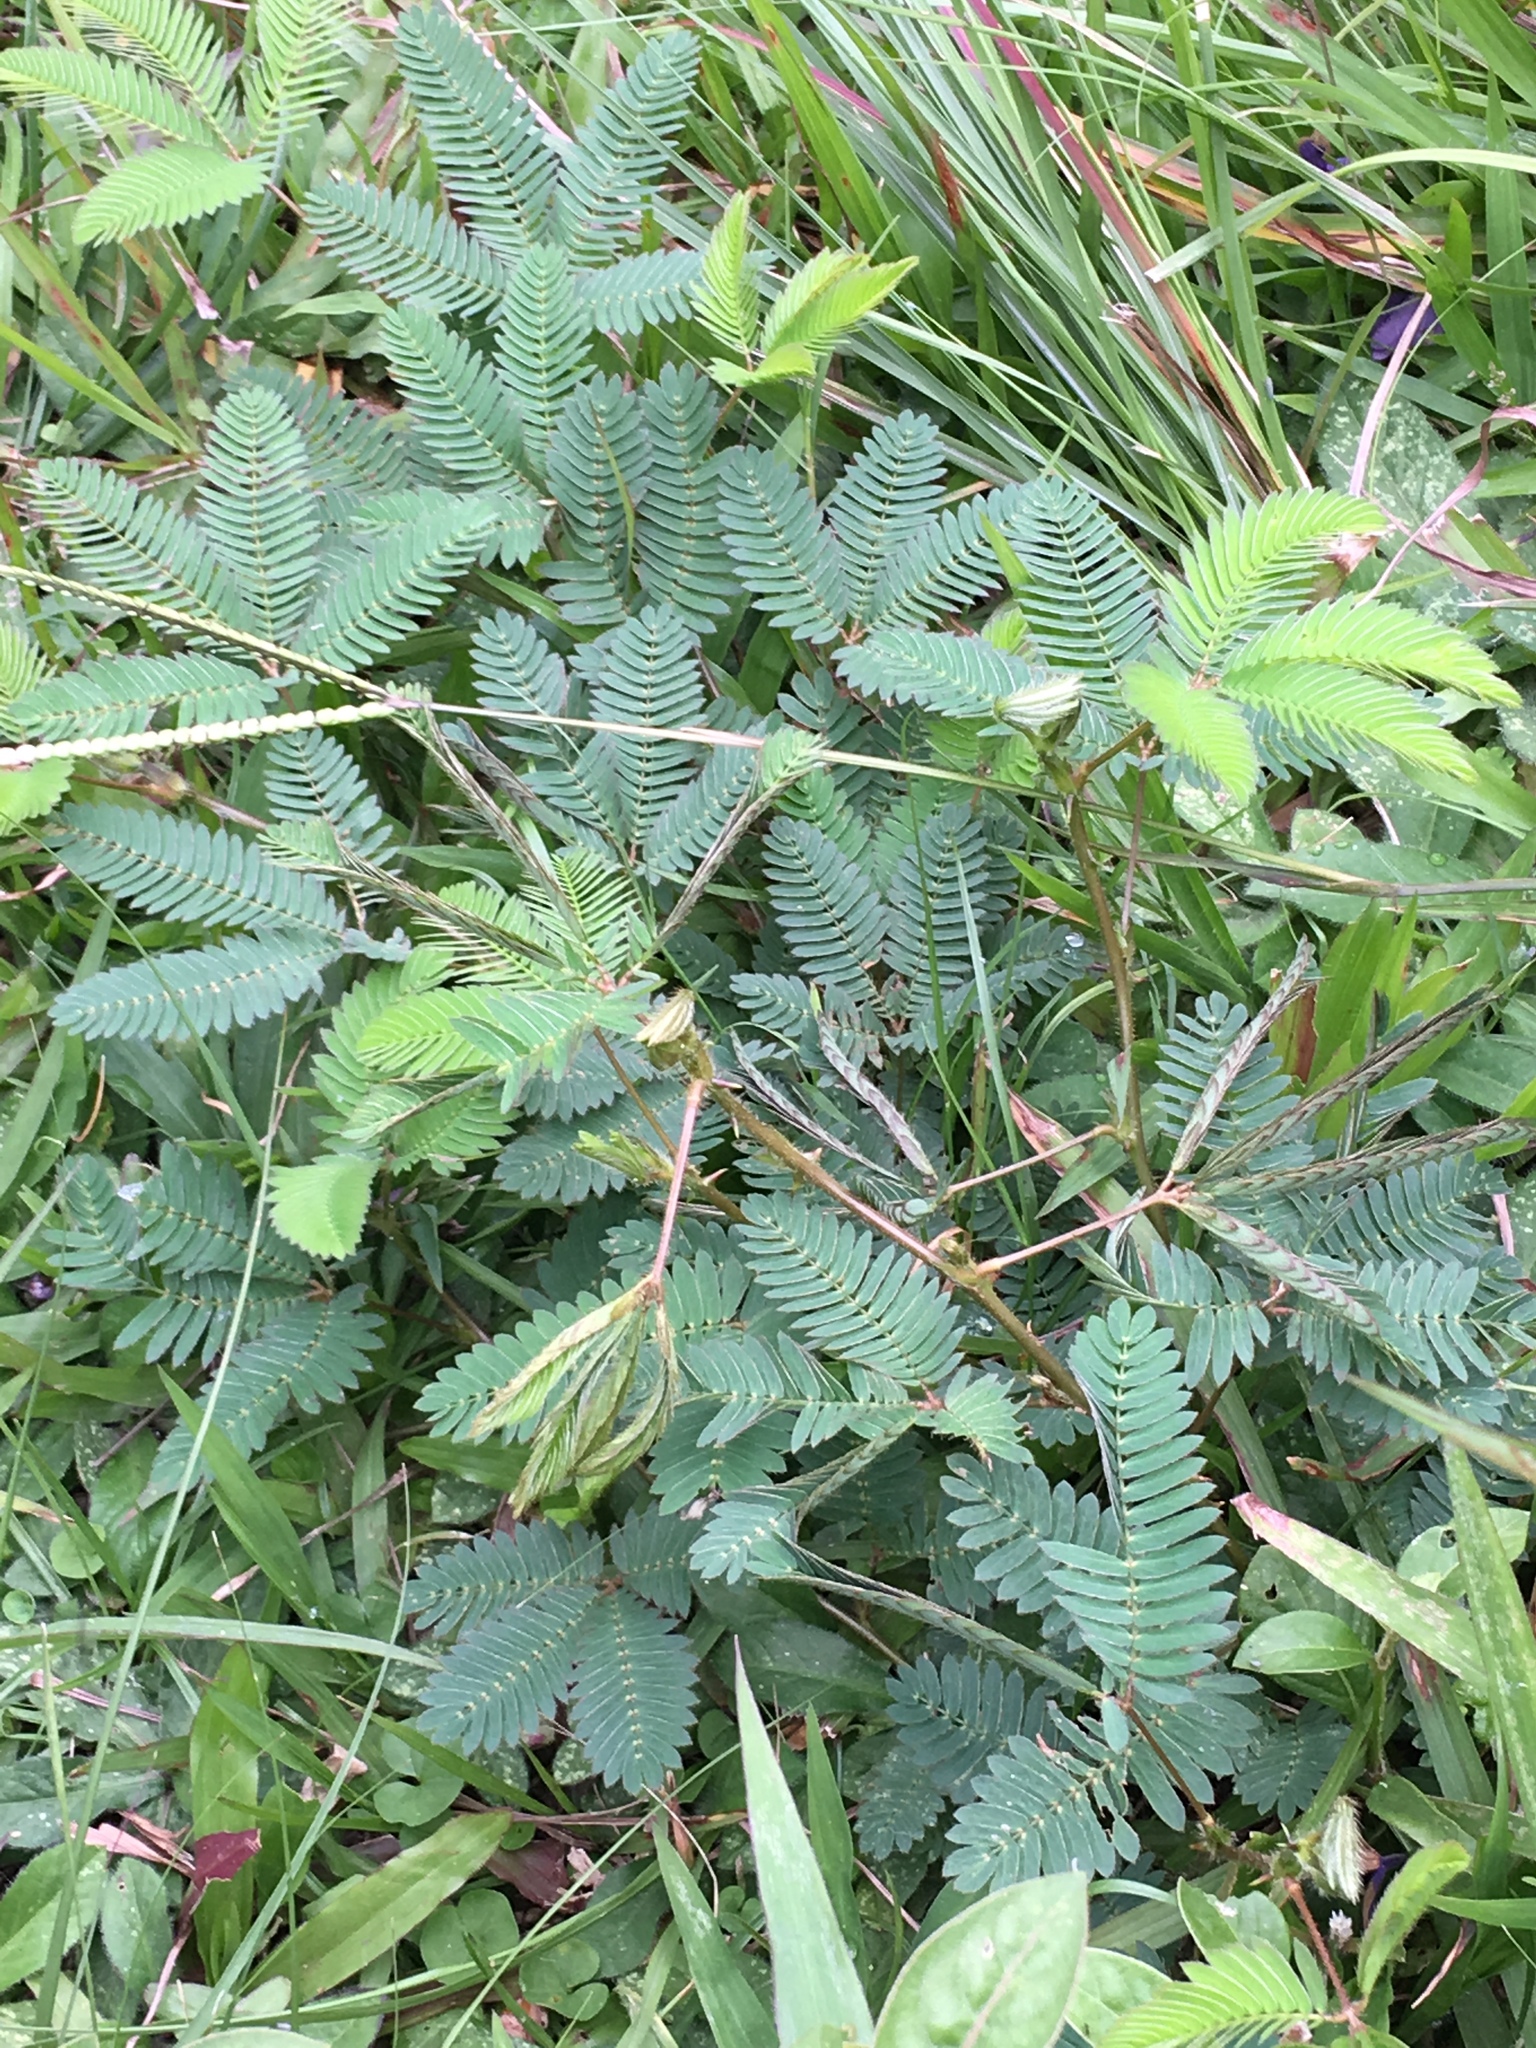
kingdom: Plantae
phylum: Tracheophyta
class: Magnoliopsida
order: Fabales
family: Fabaceae
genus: Mimosa
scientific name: Mimosa pudica
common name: Sensitive plant
